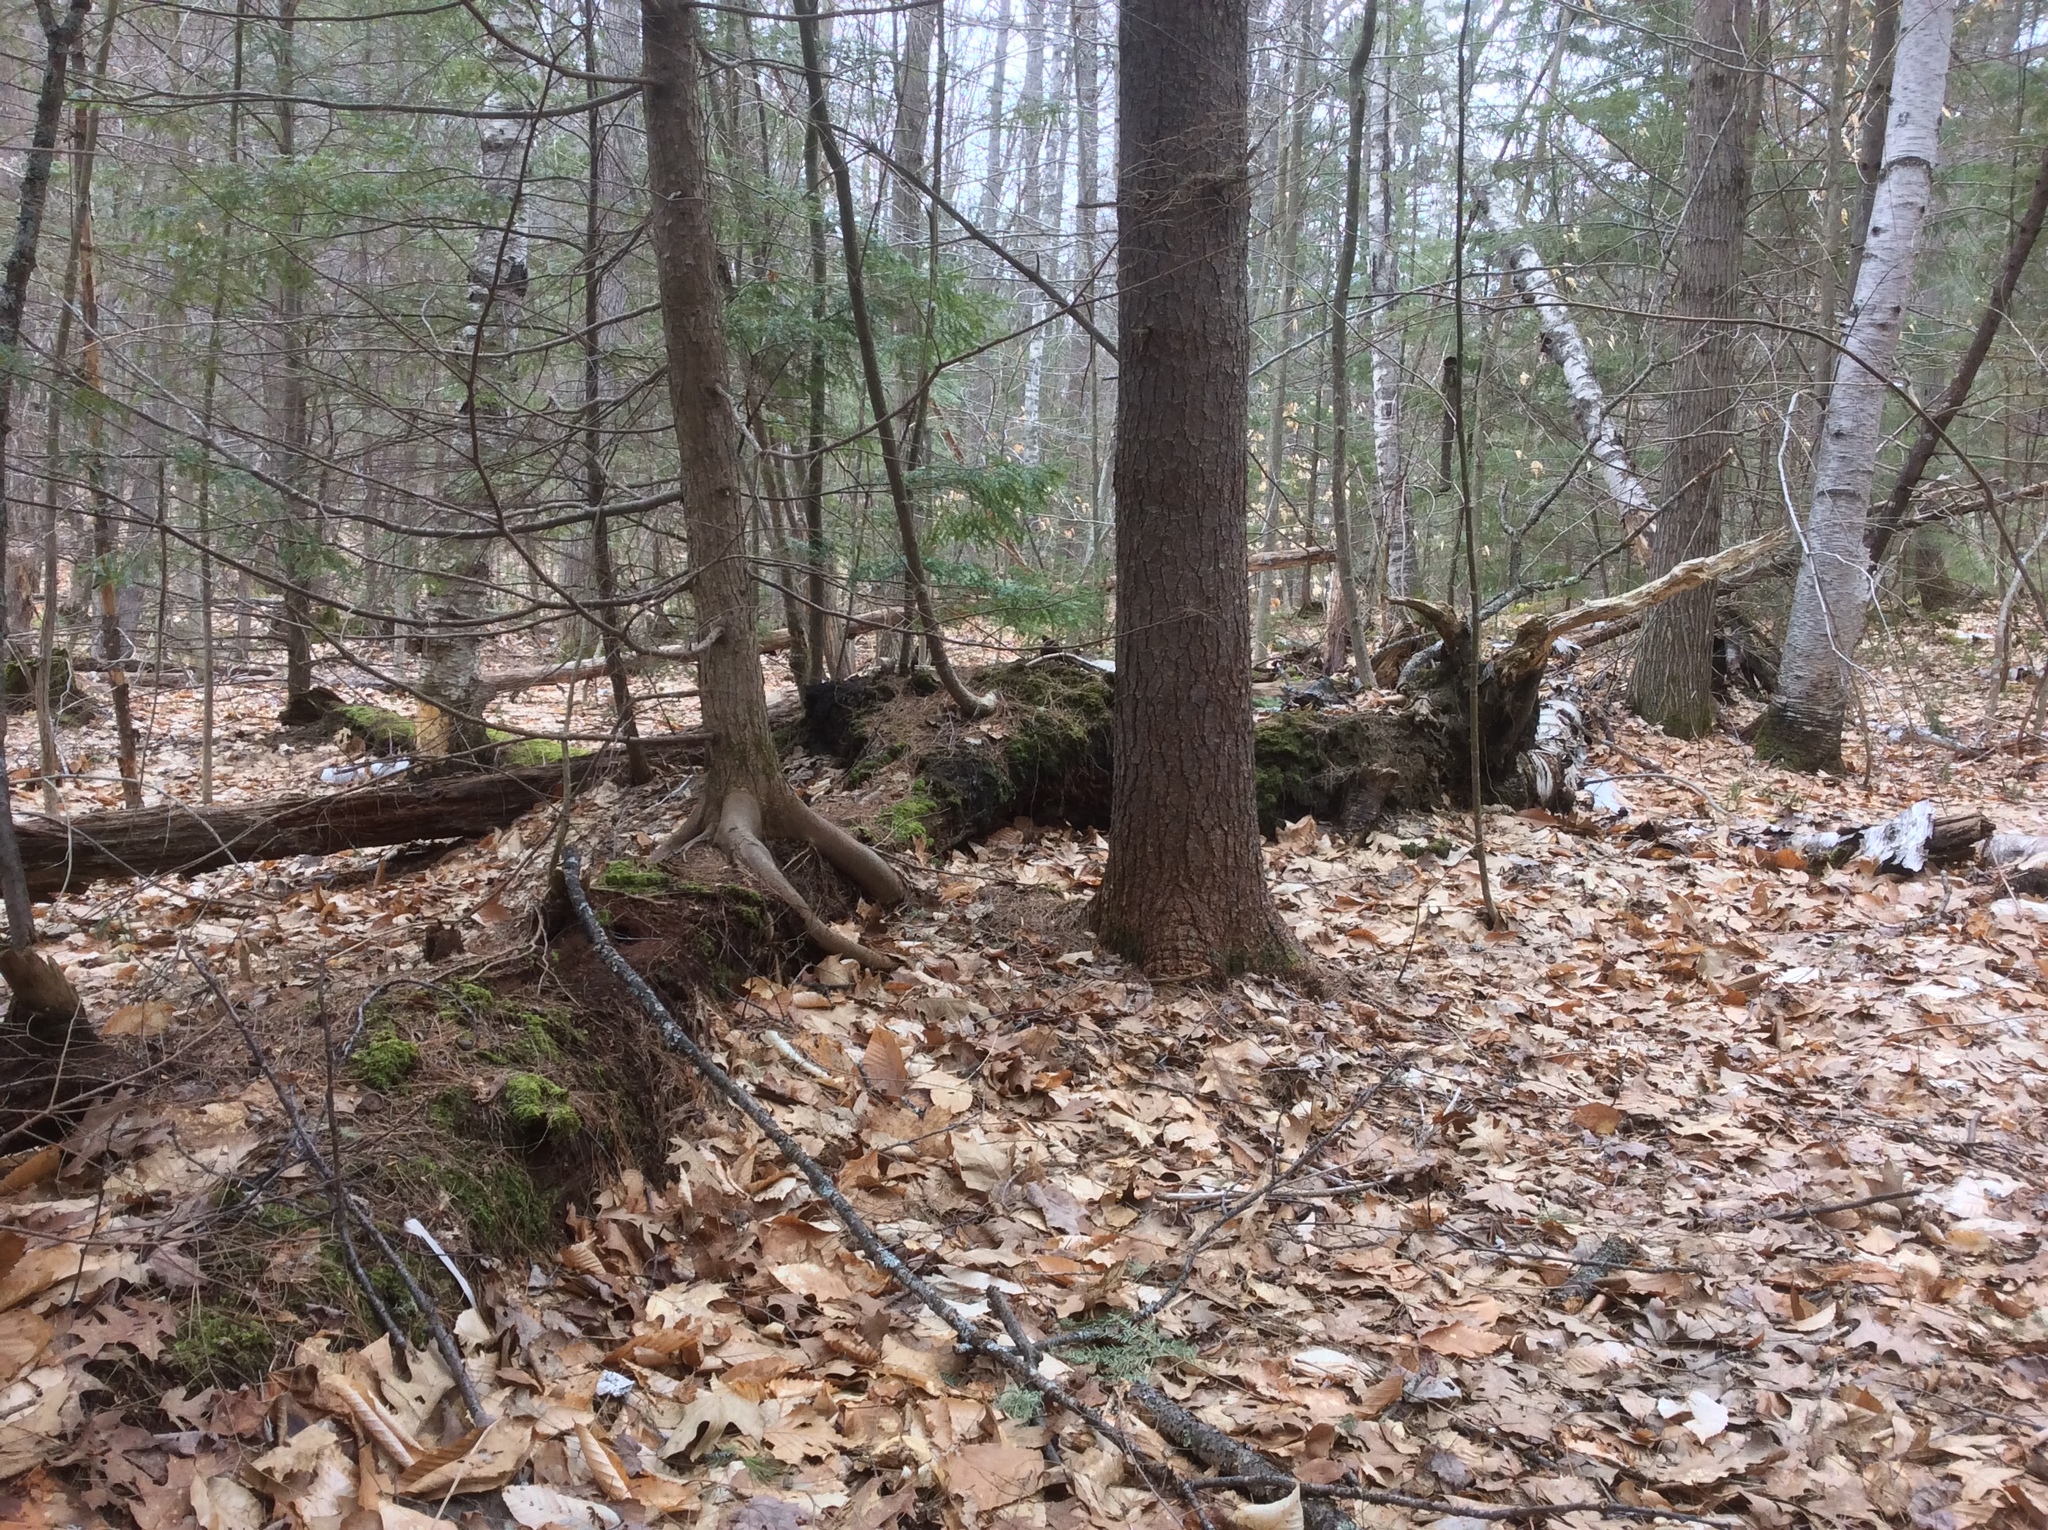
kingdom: Plantae
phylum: Tracheophyta
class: Pinopsida
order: Pinales
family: Pinaceae
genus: Tsuga
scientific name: Tsuga canadensis
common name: Eastern hemlock
